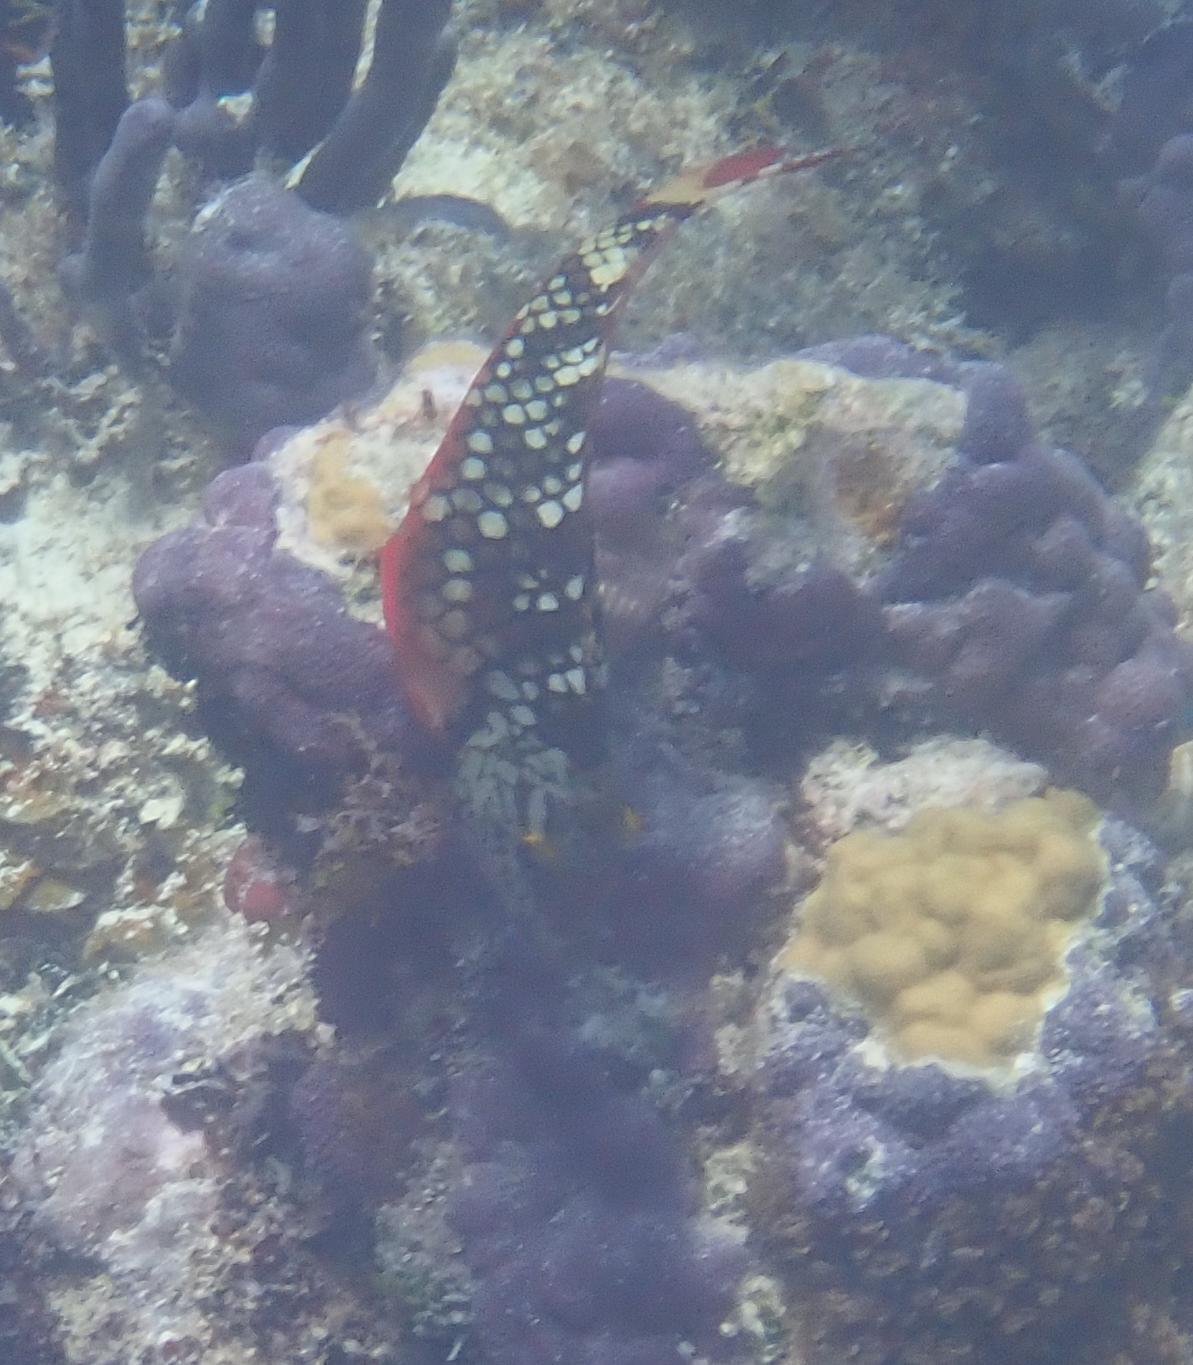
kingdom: Animalia
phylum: Chordata
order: Perciformes
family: Scaridae
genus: Sparisoma
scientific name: Sparisoma viride
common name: Stoplight parrotfish
